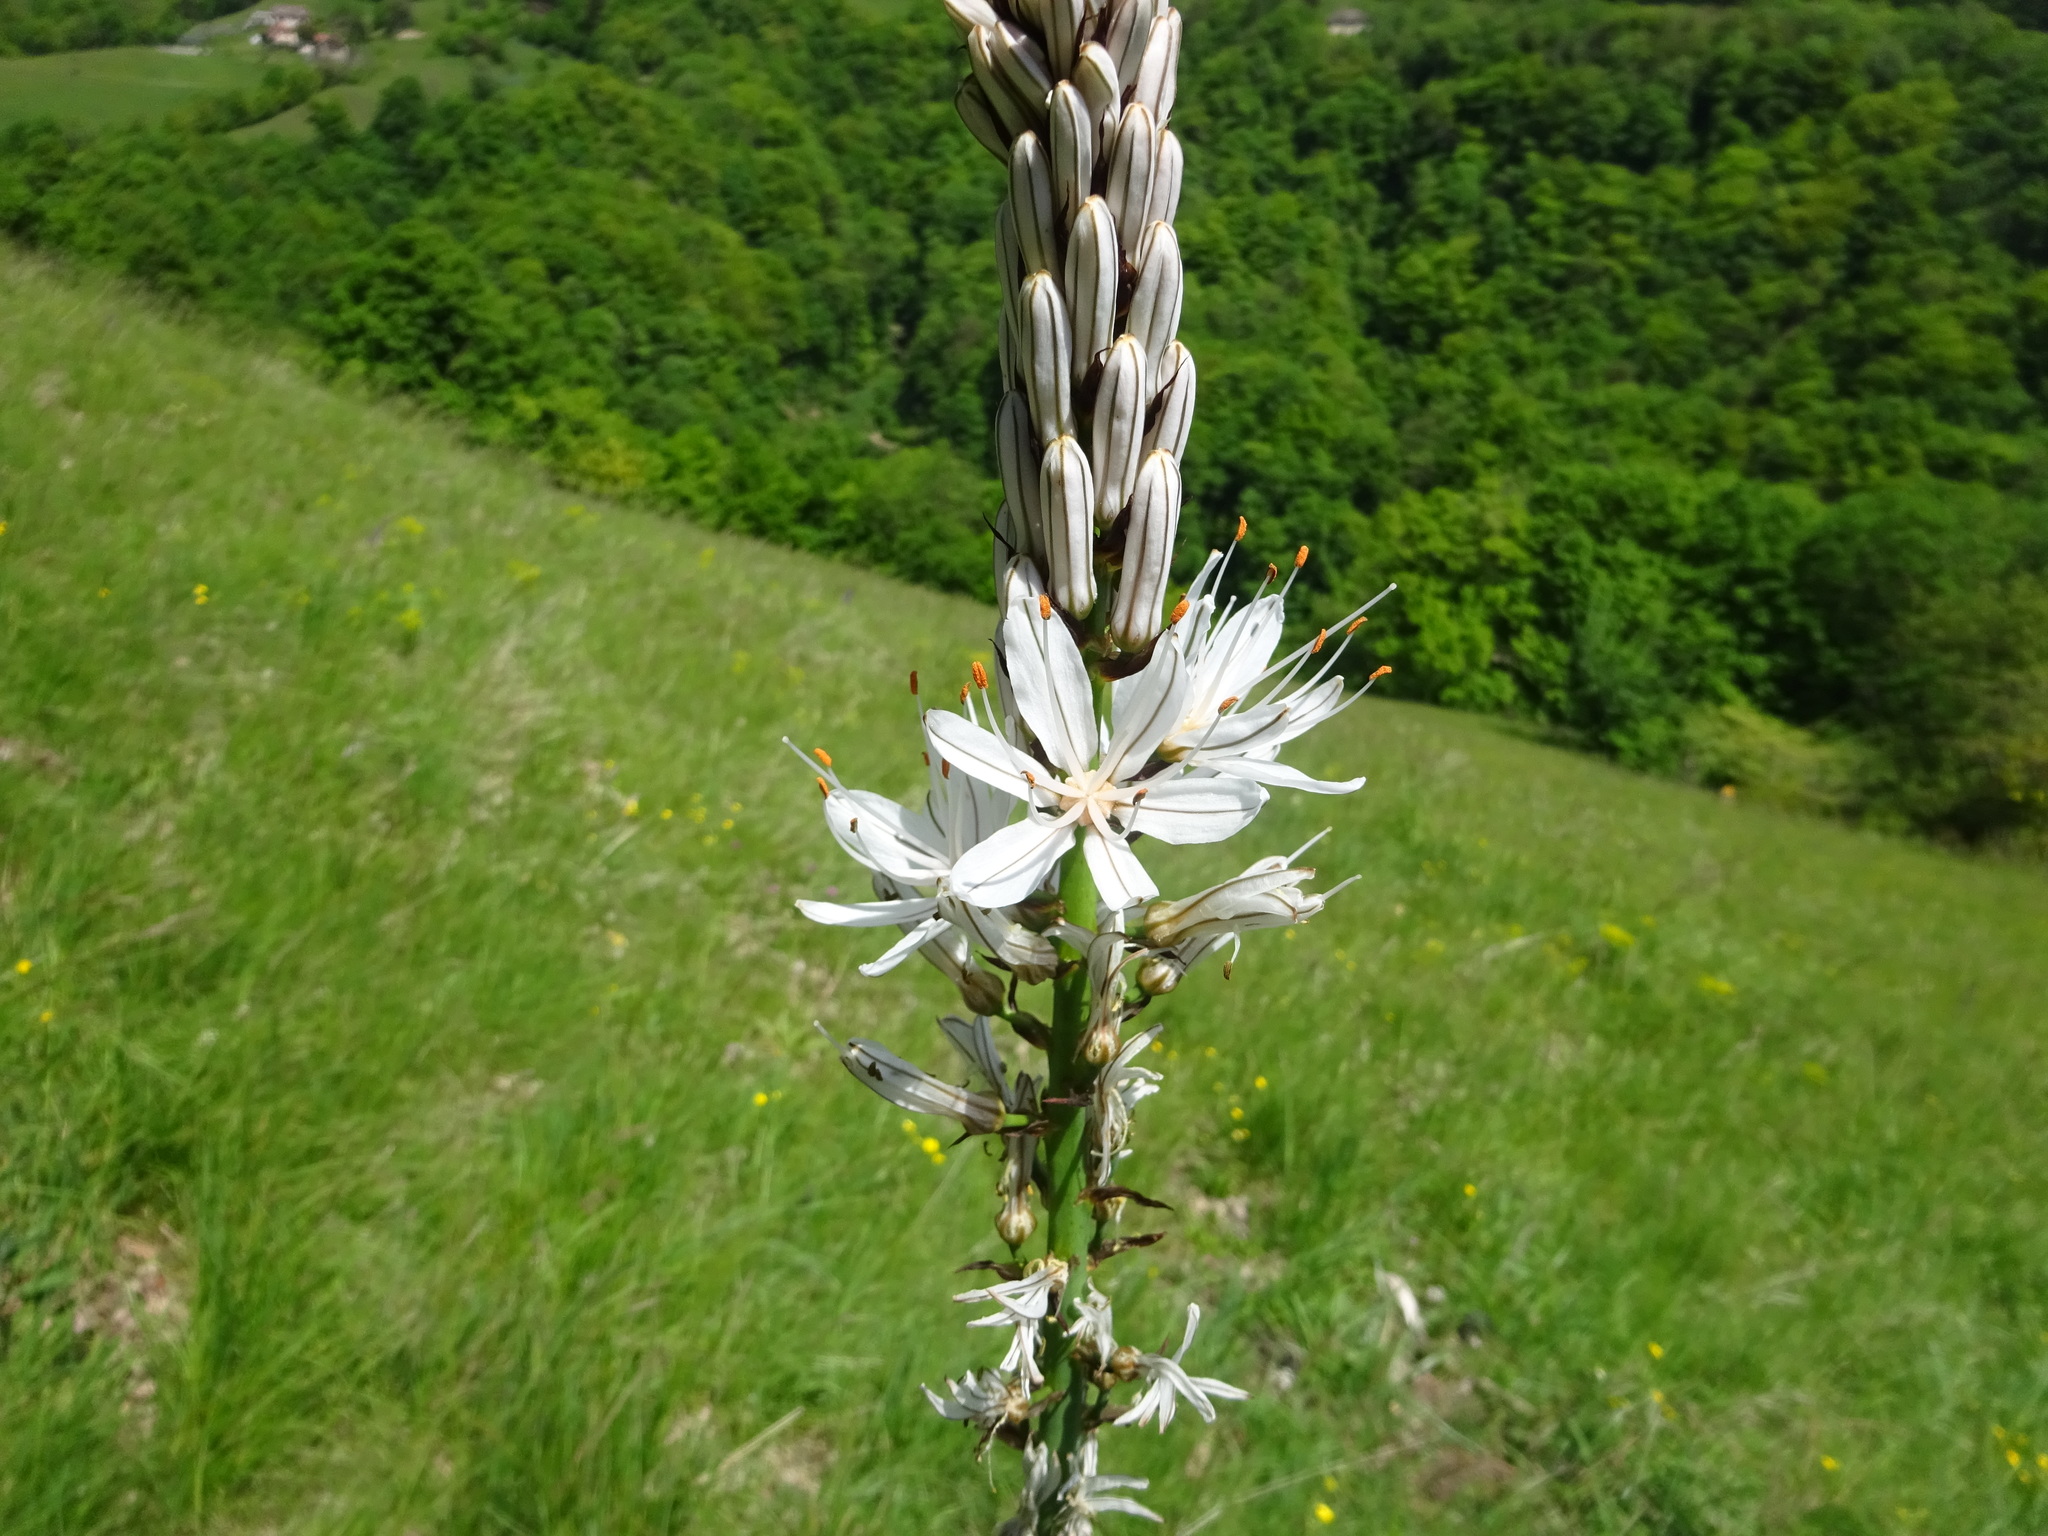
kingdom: Plantae
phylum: Tracheophyta
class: Liliopsida
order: Asparagales
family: Asphodelaceae
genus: Asphodelus
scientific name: Asphodelus albus
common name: White asphodel
